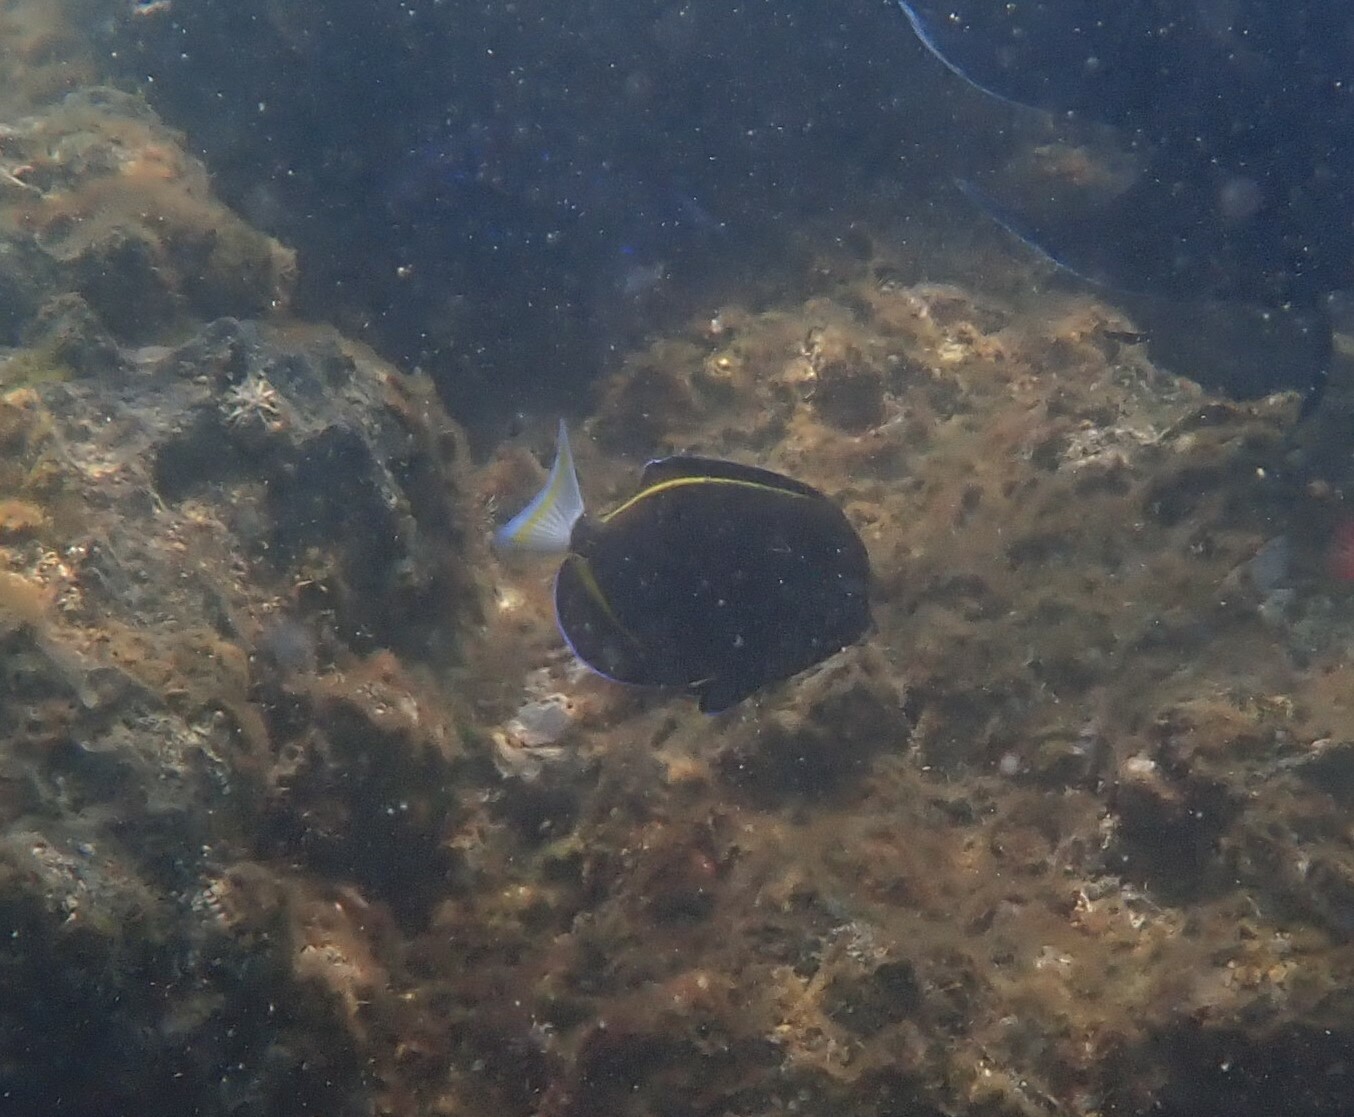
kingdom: Animalia
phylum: Chordata
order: Perciformes
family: Acanthuridae
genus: Acanthurus
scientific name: Acanthurus nigricans
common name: Whitecheek surgeonfish
